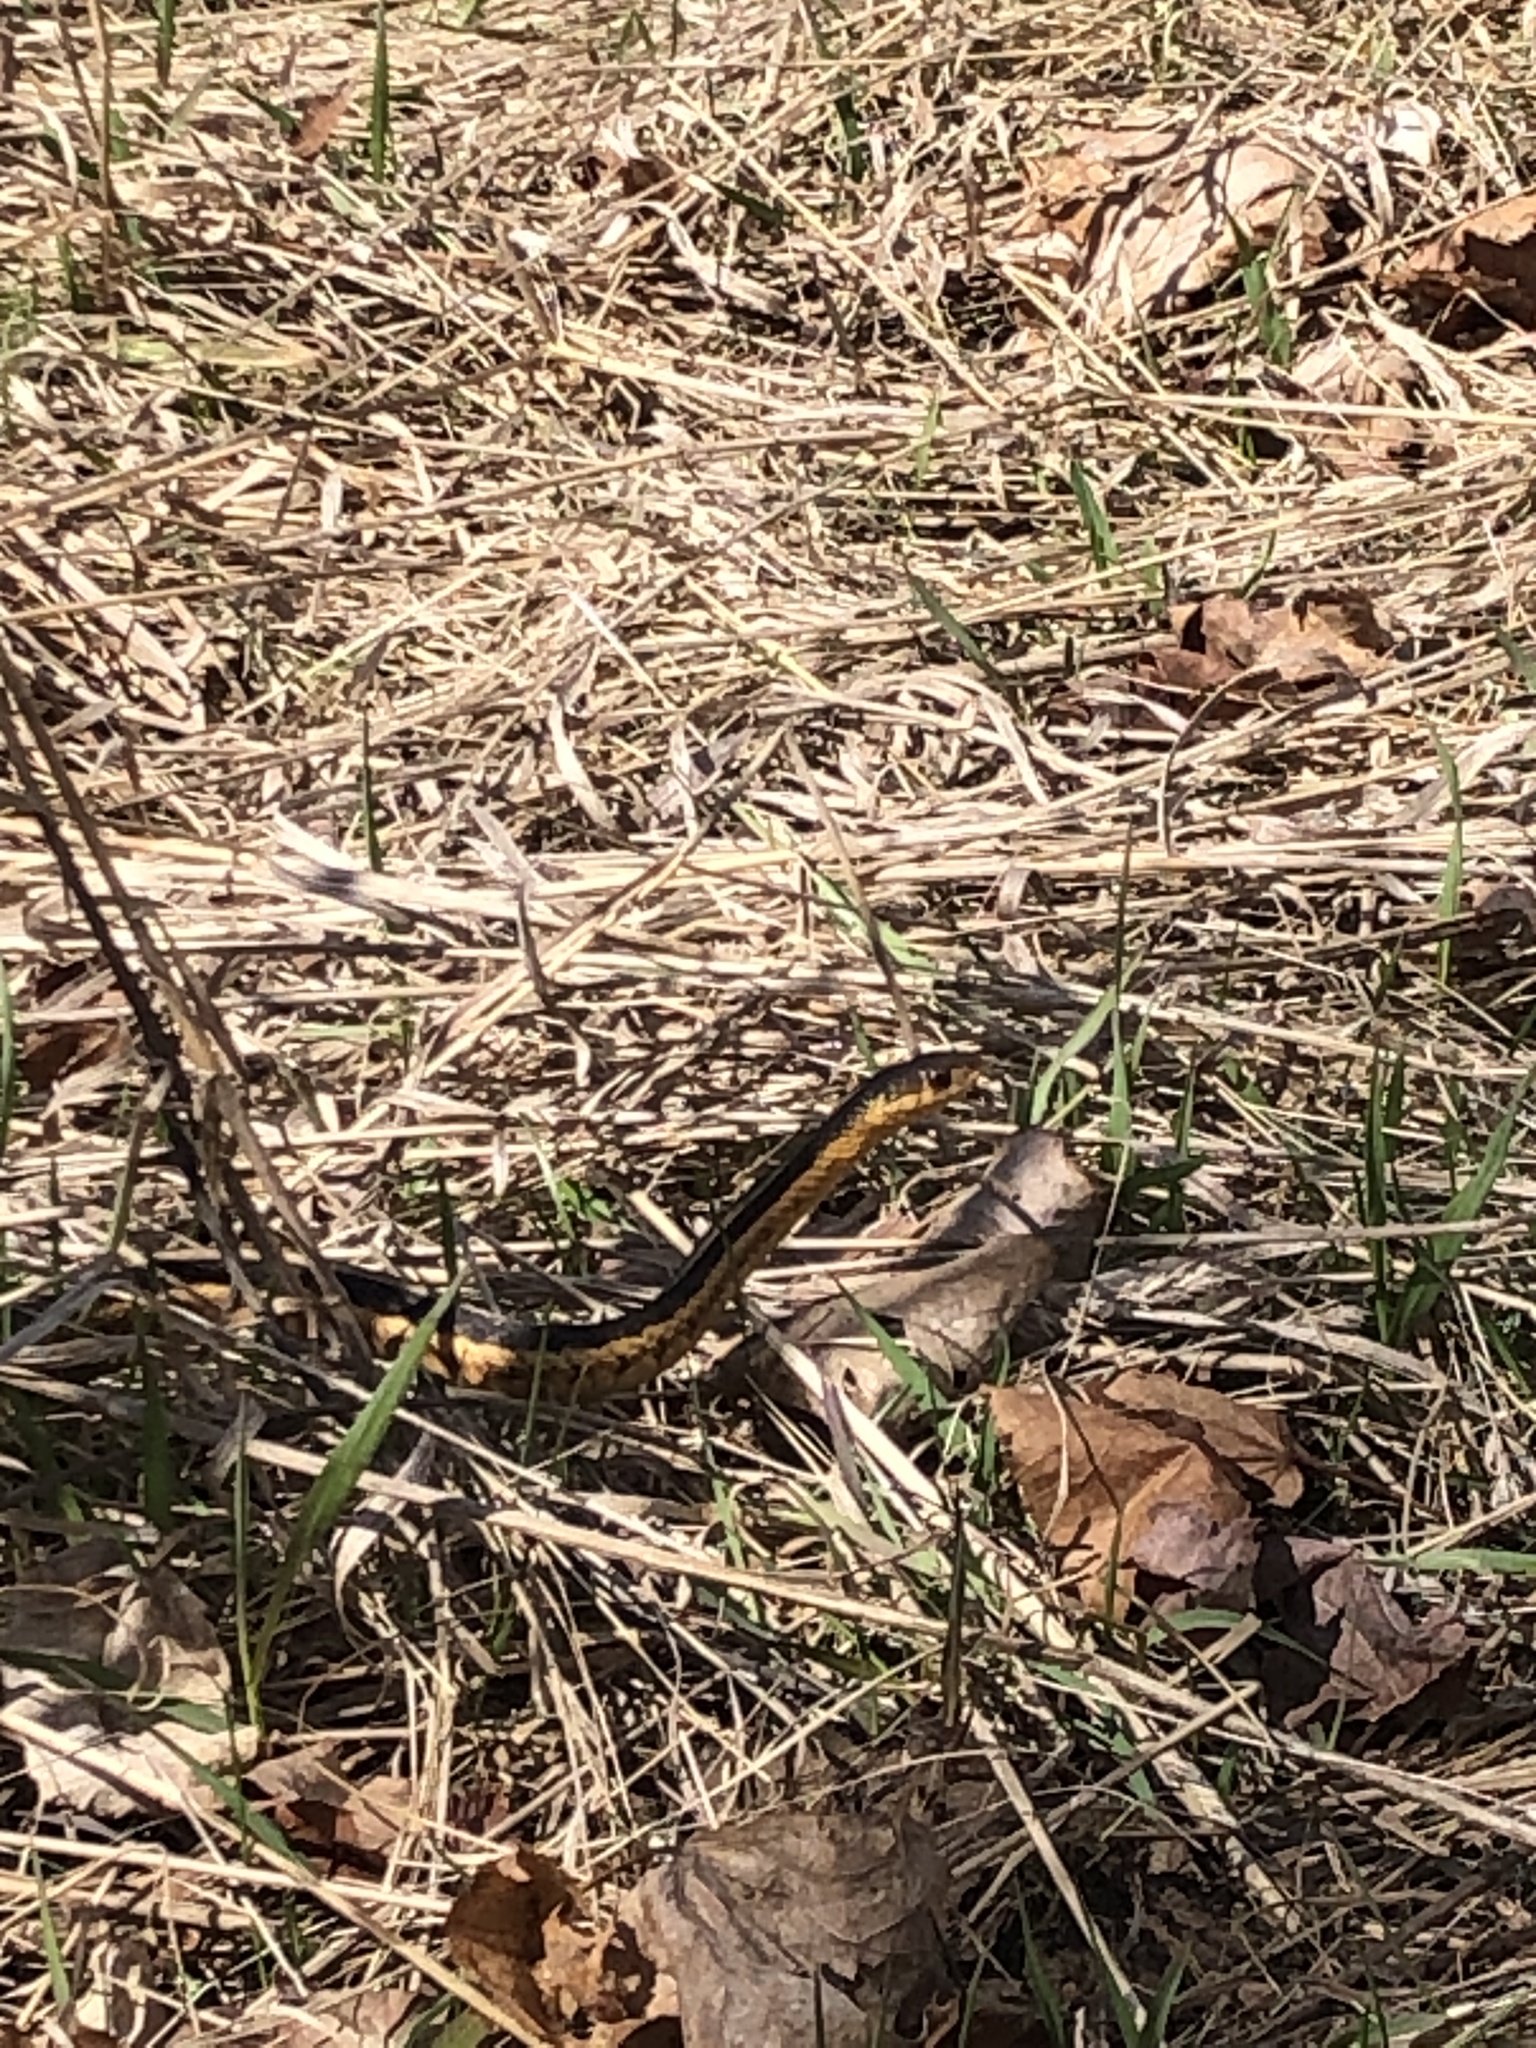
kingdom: Animalia
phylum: Chordata
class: Squamata
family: Colubridae
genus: Thamnophis
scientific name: Thamnophis sirtalis
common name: Common garter snake
